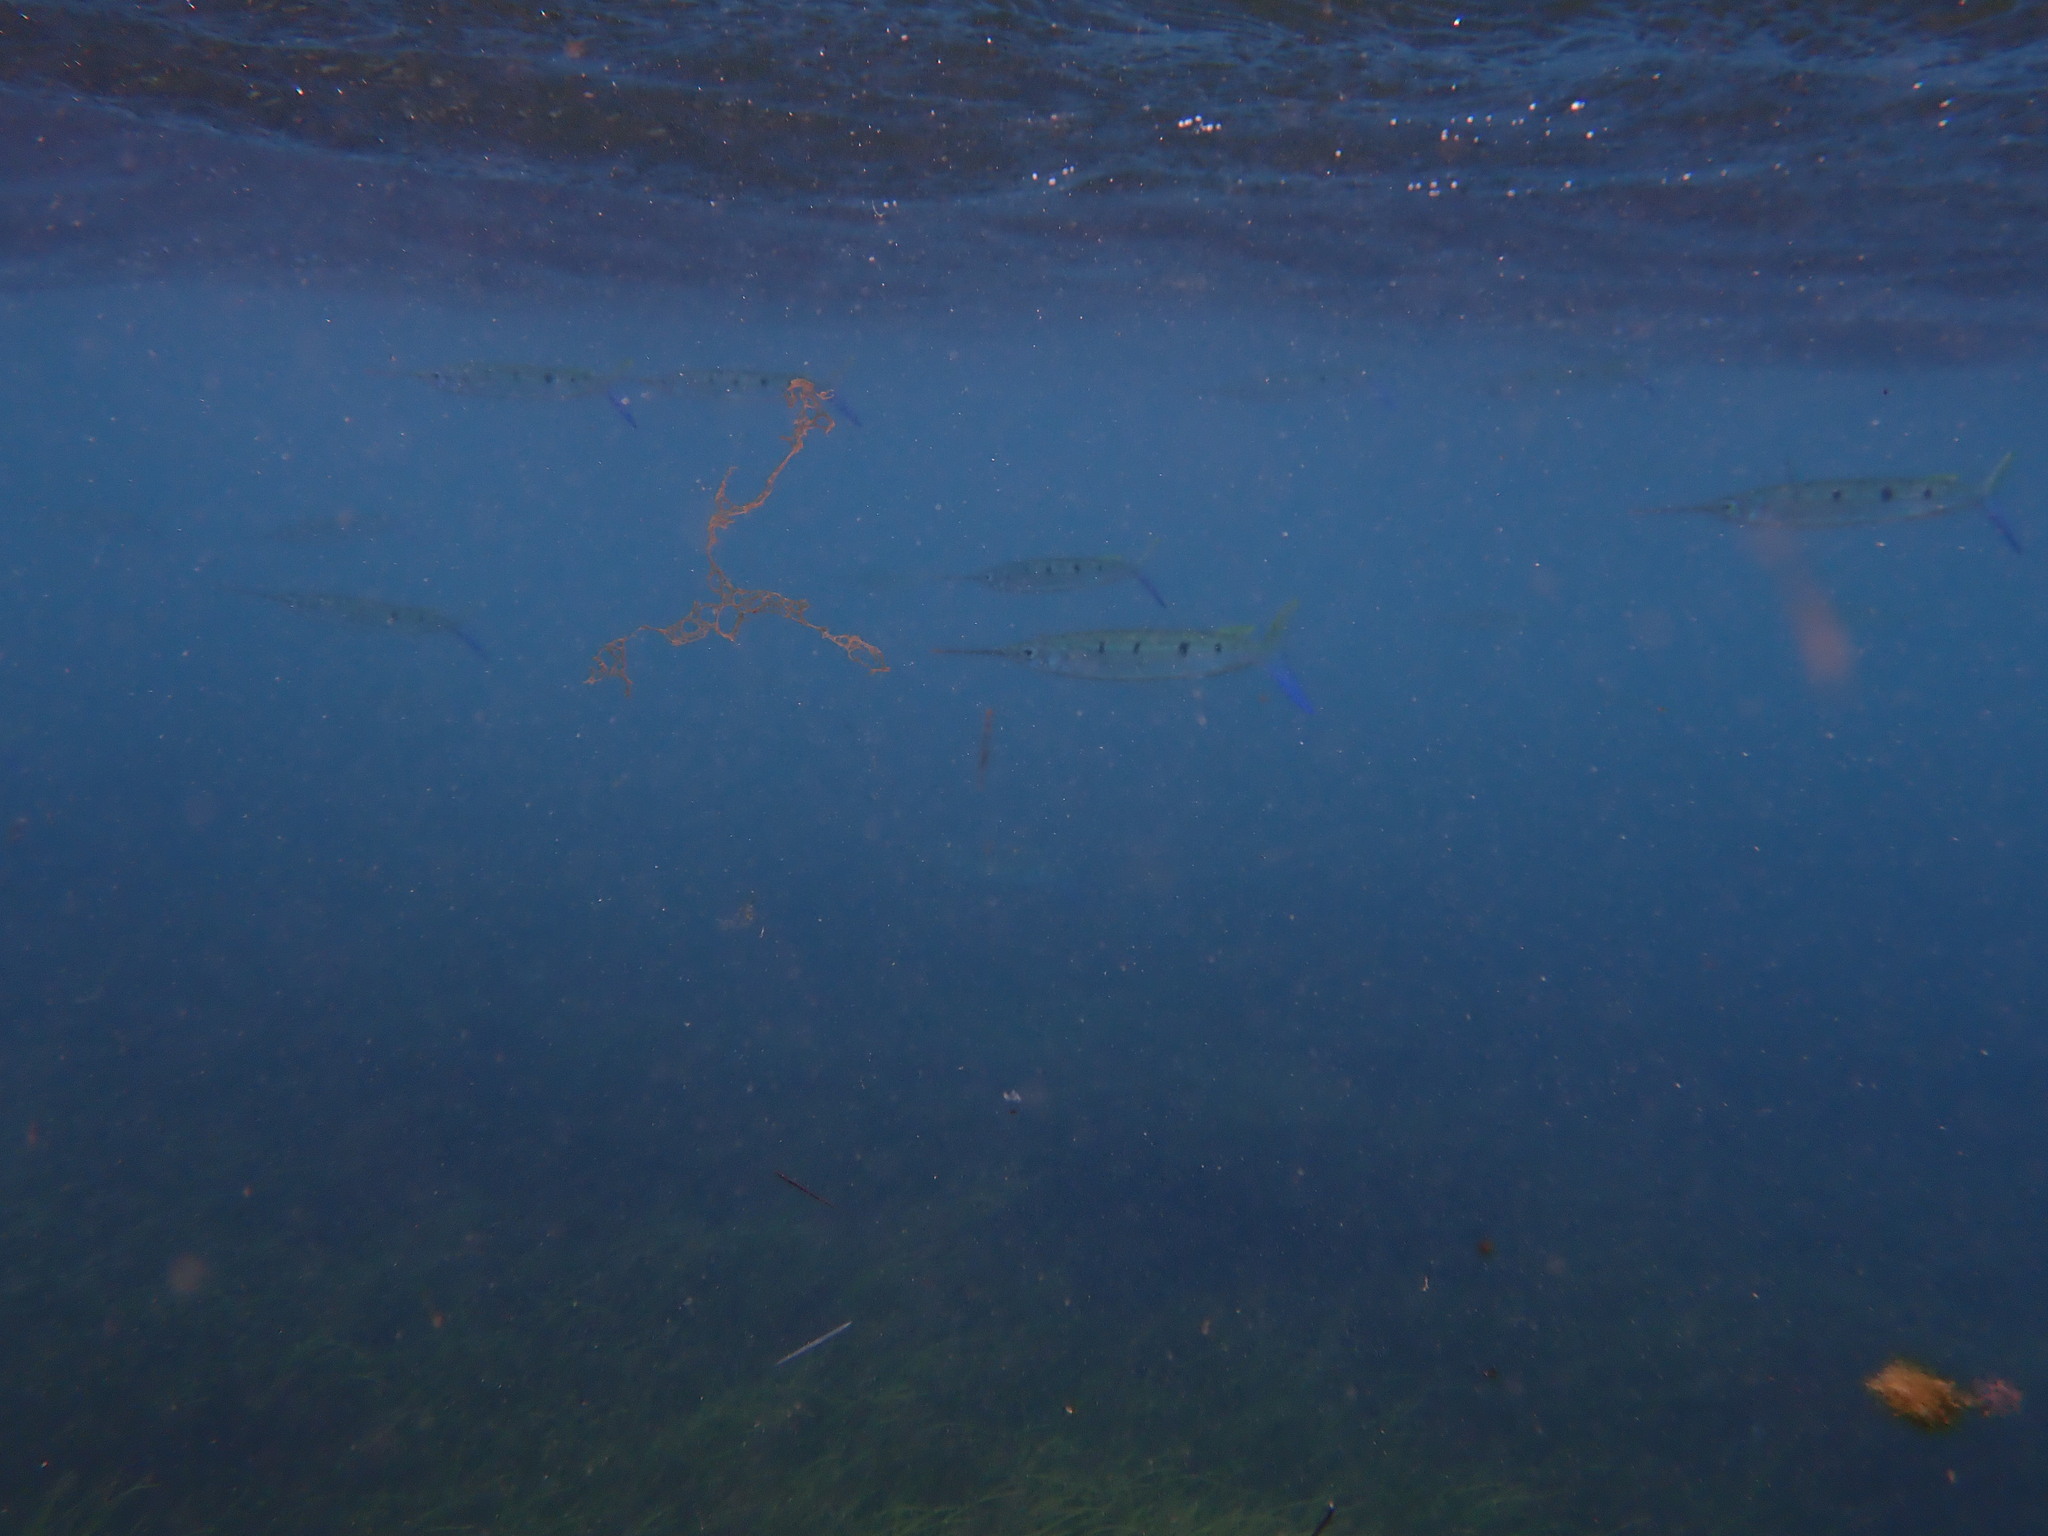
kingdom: Animalia
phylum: Chordata
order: Beloniformes
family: Hemiramphidae
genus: Hemiramphus
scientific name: Hemiramphus far
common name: Black-barred halfbeak
